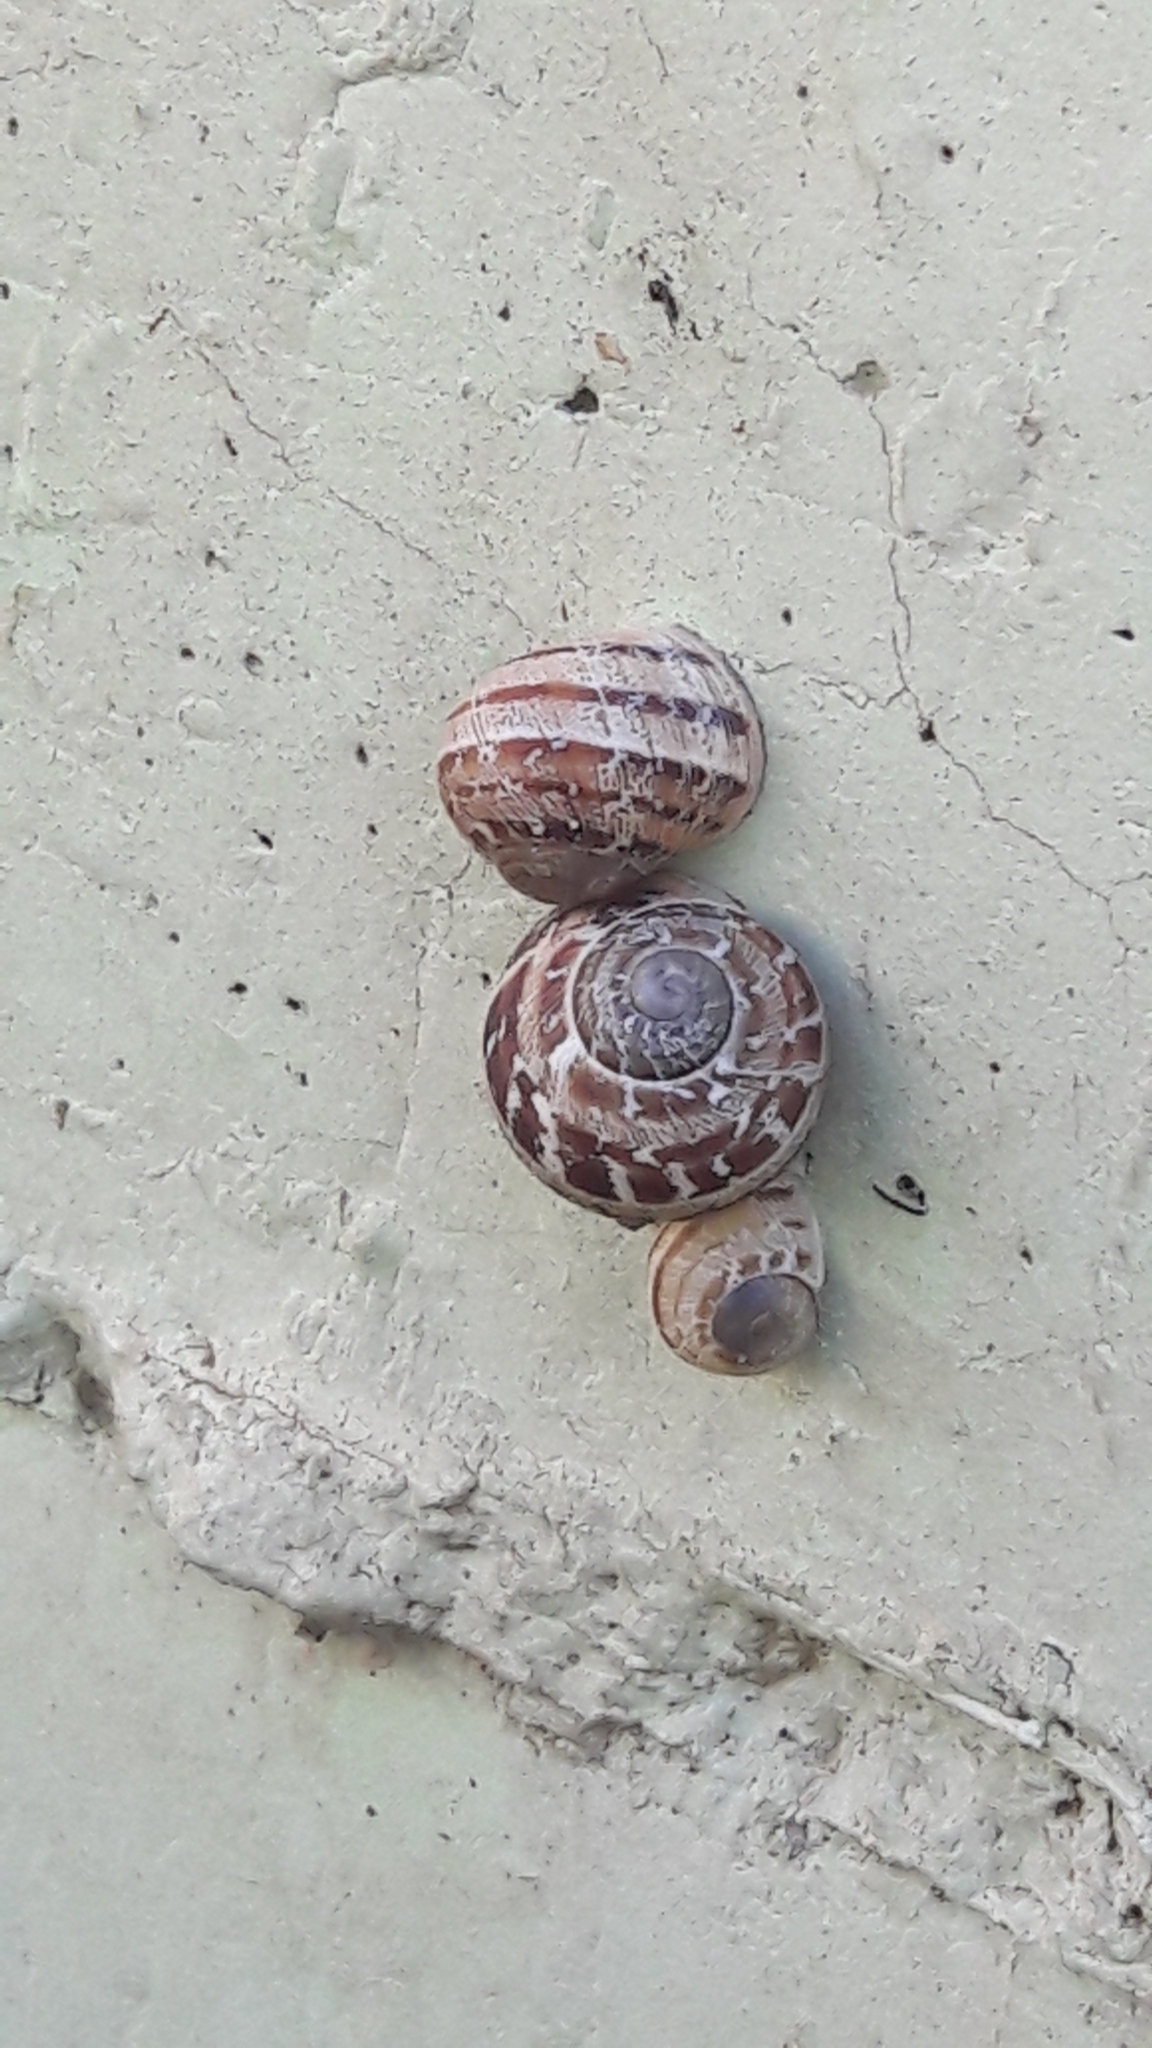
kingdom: Animalia
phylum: Mollusca
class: Gastropoda
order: Stylommatophora
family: Helicidae
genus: Cornu
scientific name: Cornu aspersum
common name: Brown garden snail
